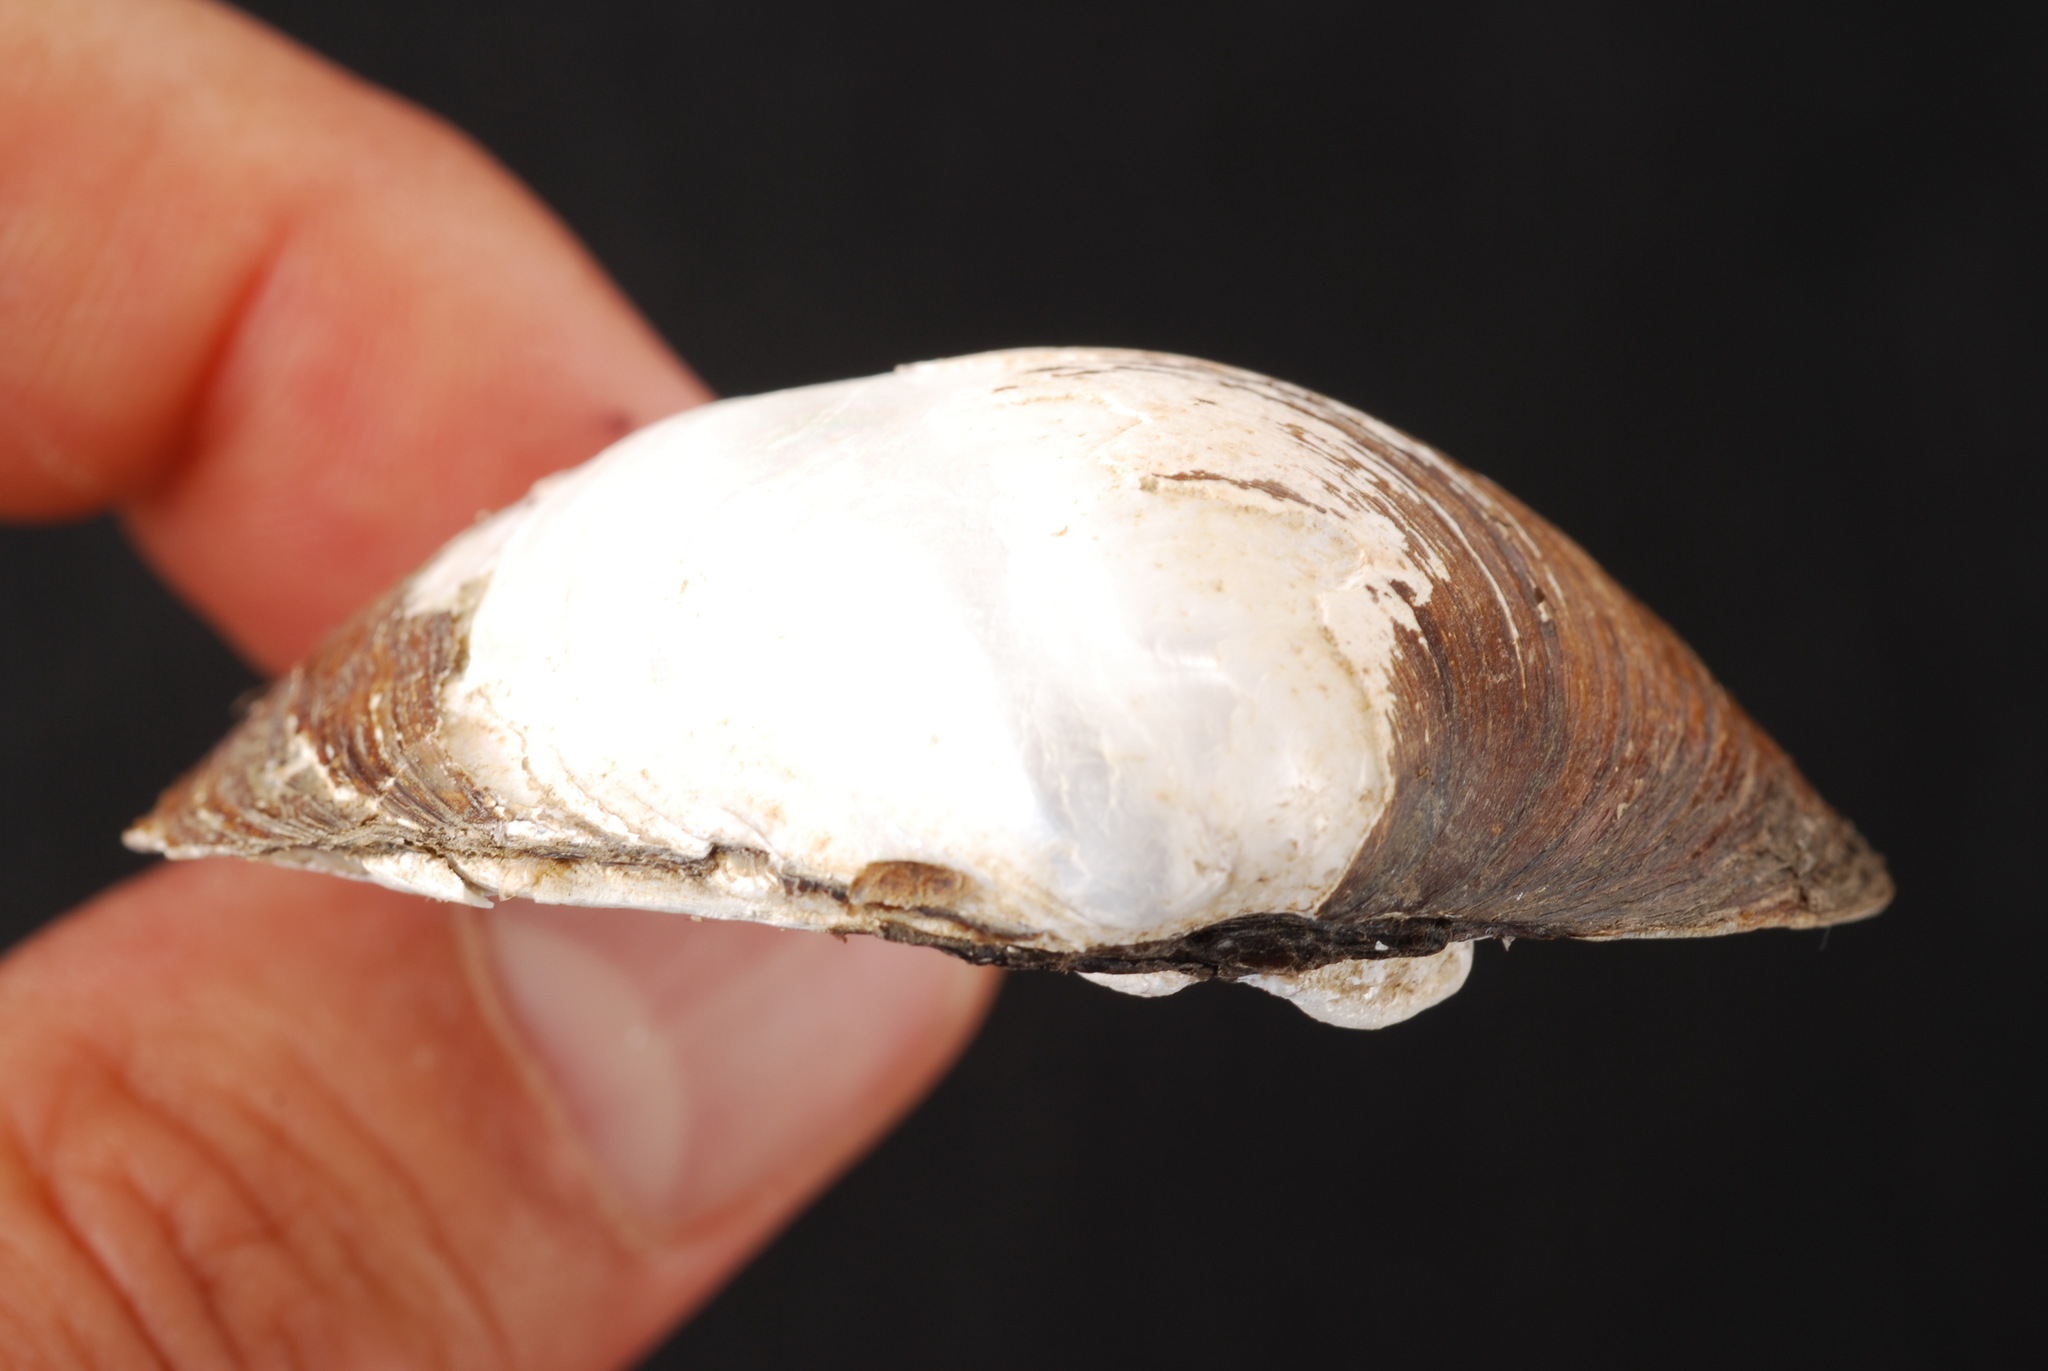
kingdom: Animalia
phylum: Mollusca
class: Bivalvia
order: Unionida
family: Unionidae
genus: Fusconaia
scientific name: Fusconaia flava
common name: Wabash pigtoe
